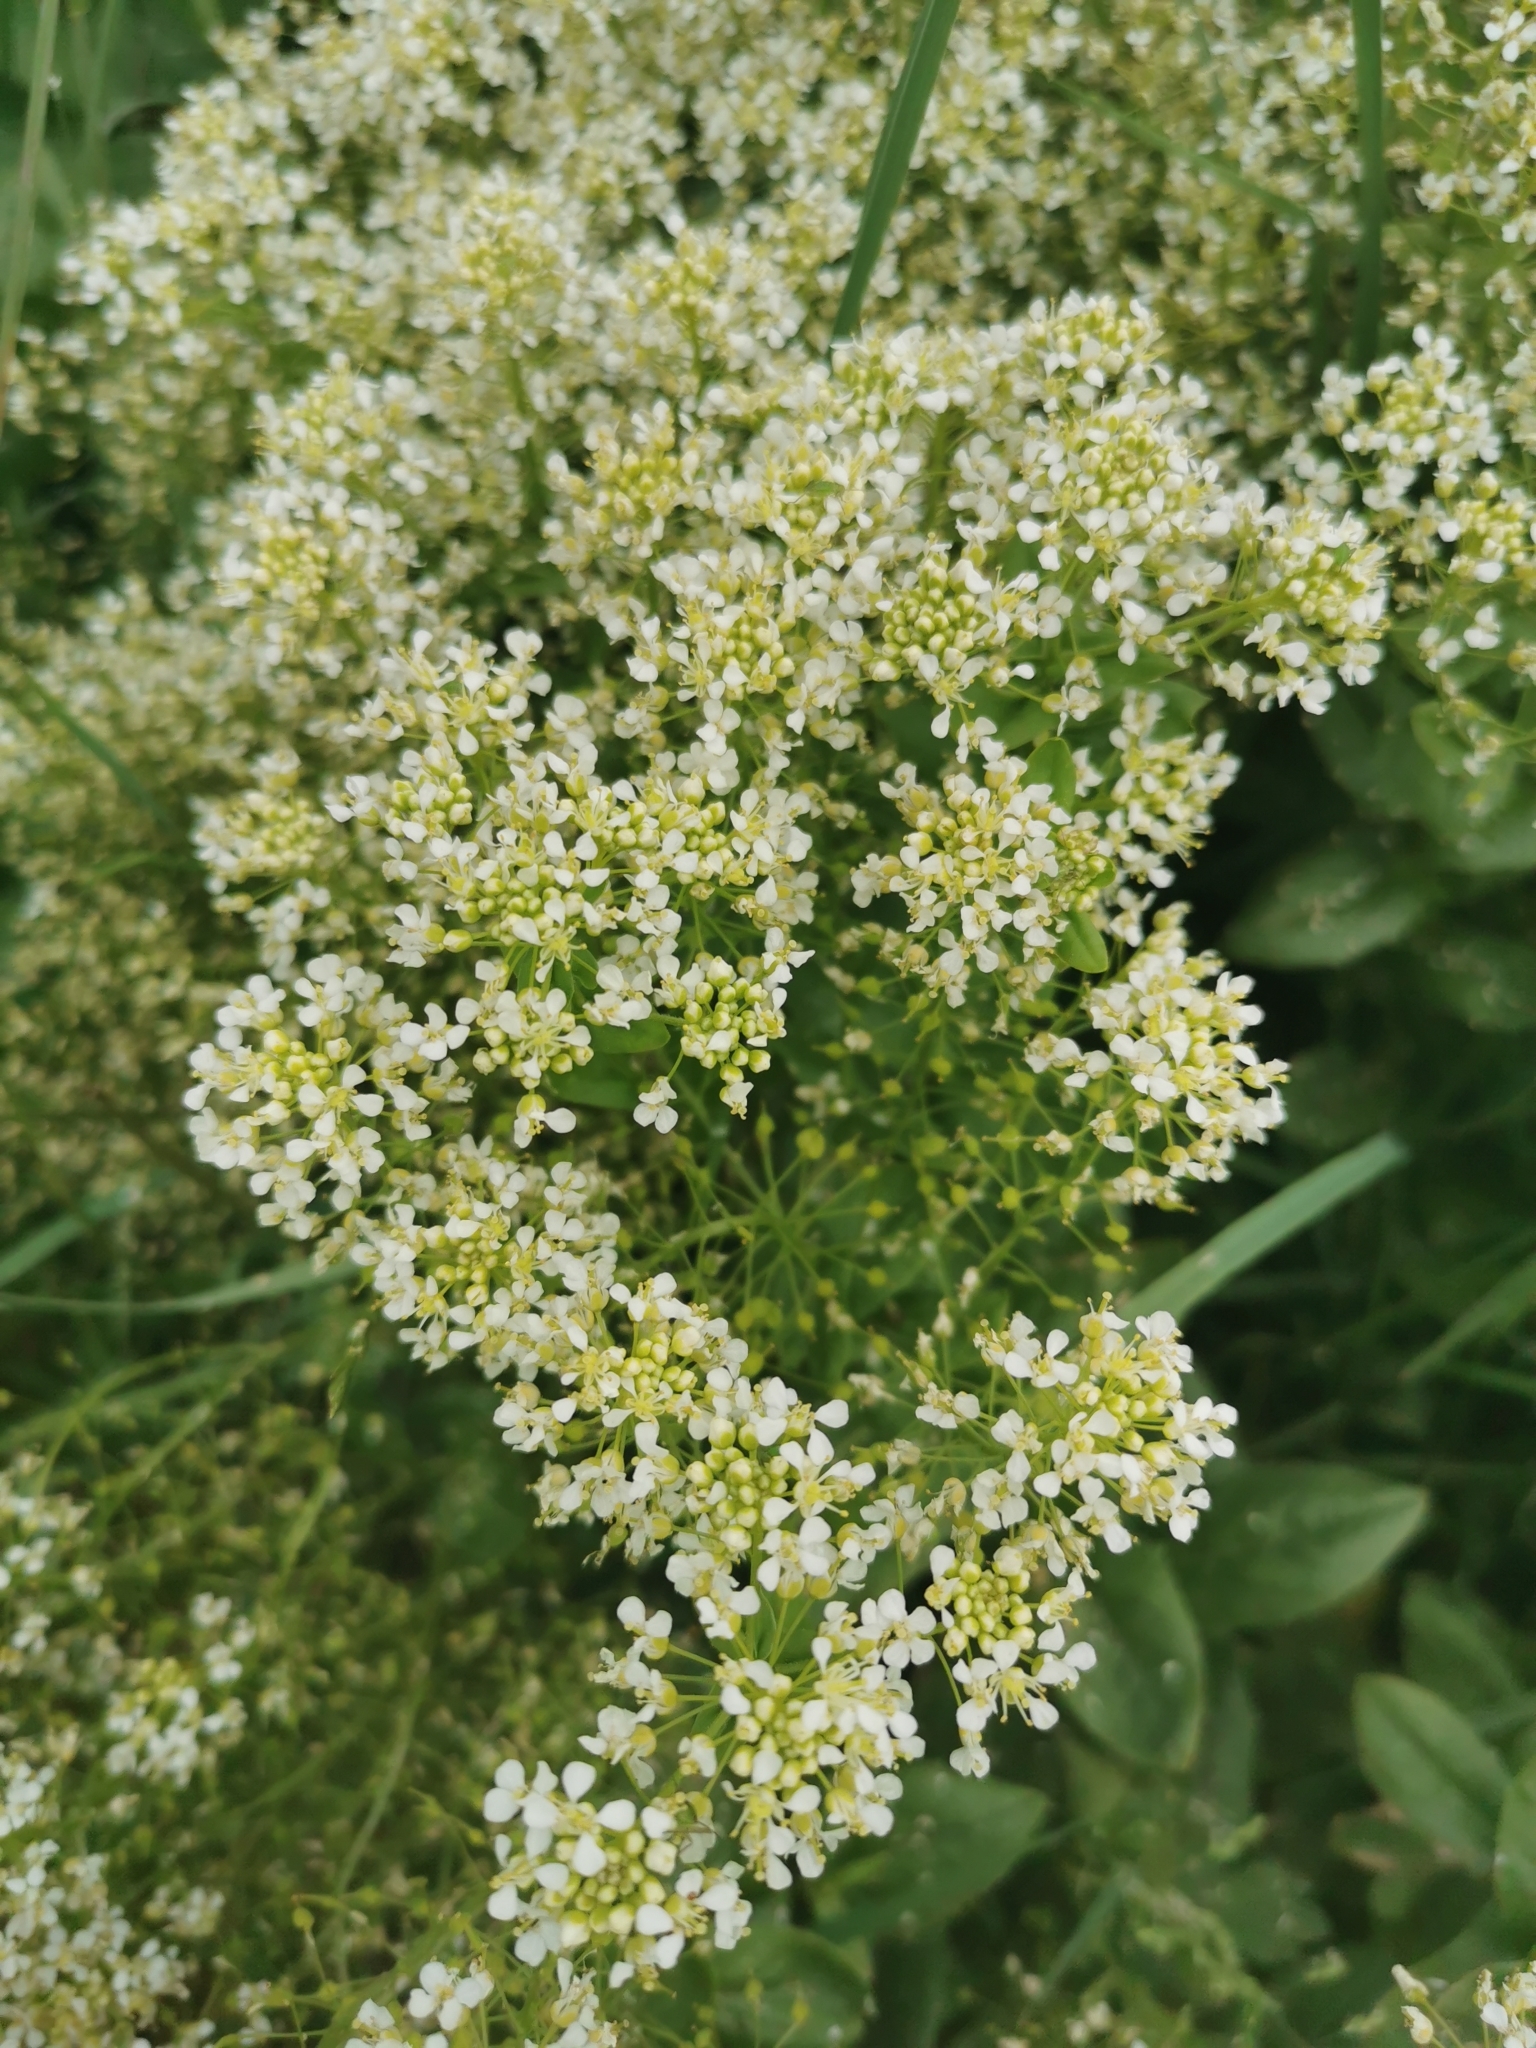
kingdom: Plantae
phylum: Tracheophyta
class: Magnoliopsida
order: Brassicales
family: Brassicaceae
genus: Lepidium
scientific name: Lepidium draba
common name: Hoary cress
